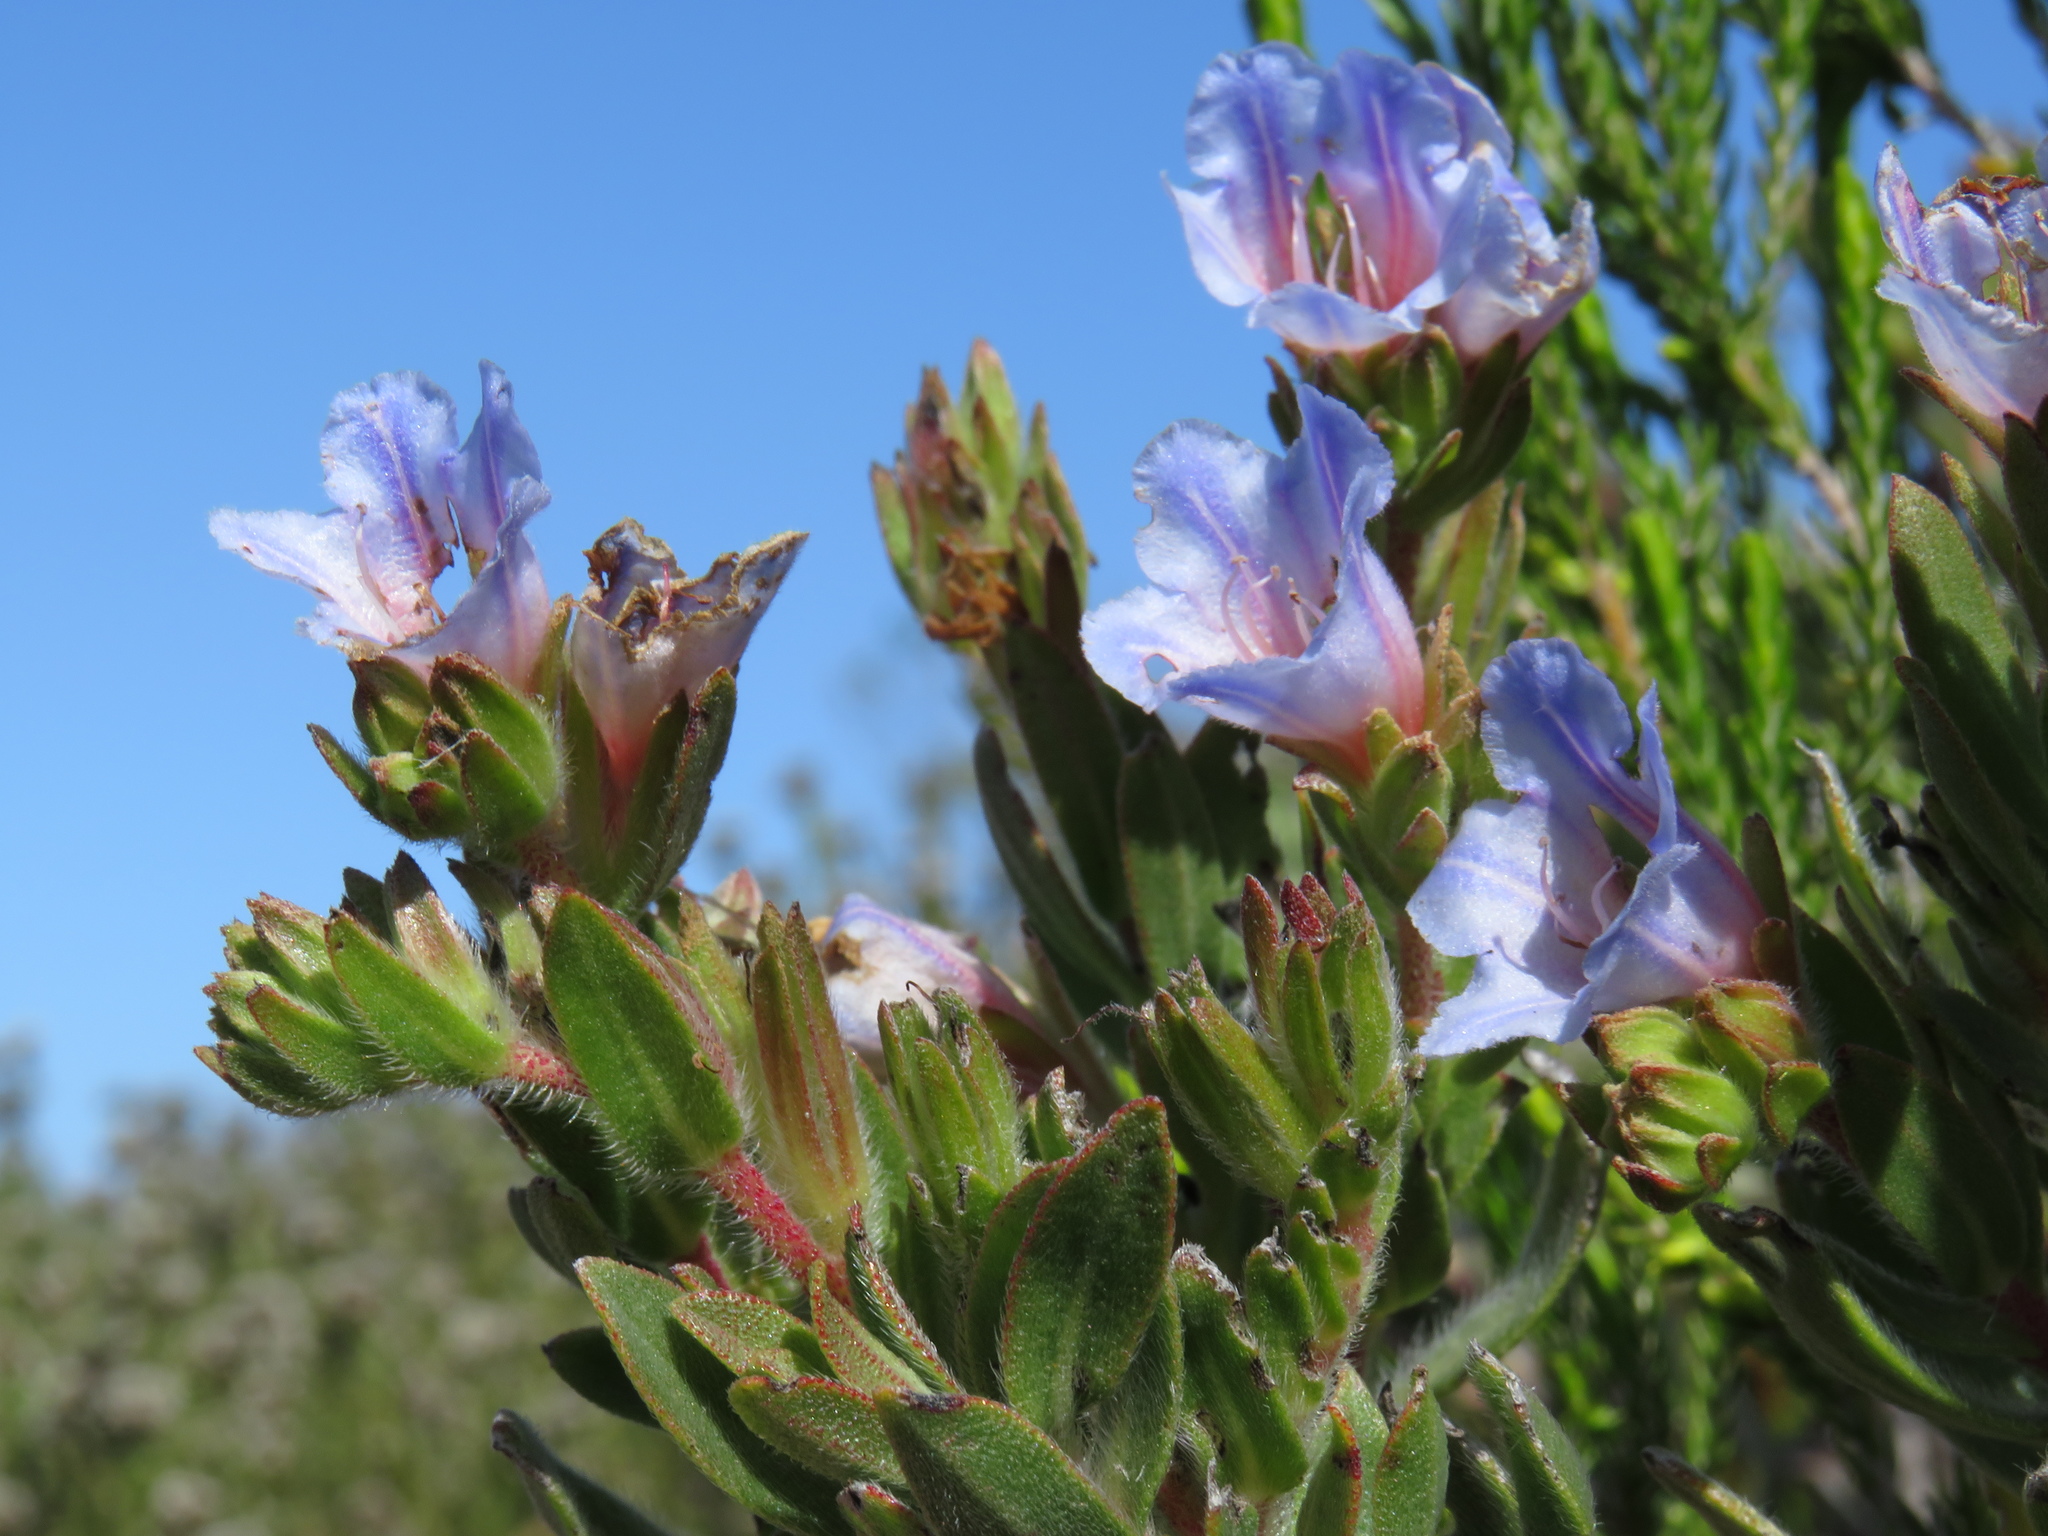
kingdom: Plantae
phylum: Tracheophyta
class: Magnoliopsida
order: Boraginales
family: Boraginaceae
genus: Lobostemon
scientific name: Lobostemon fruticosus
